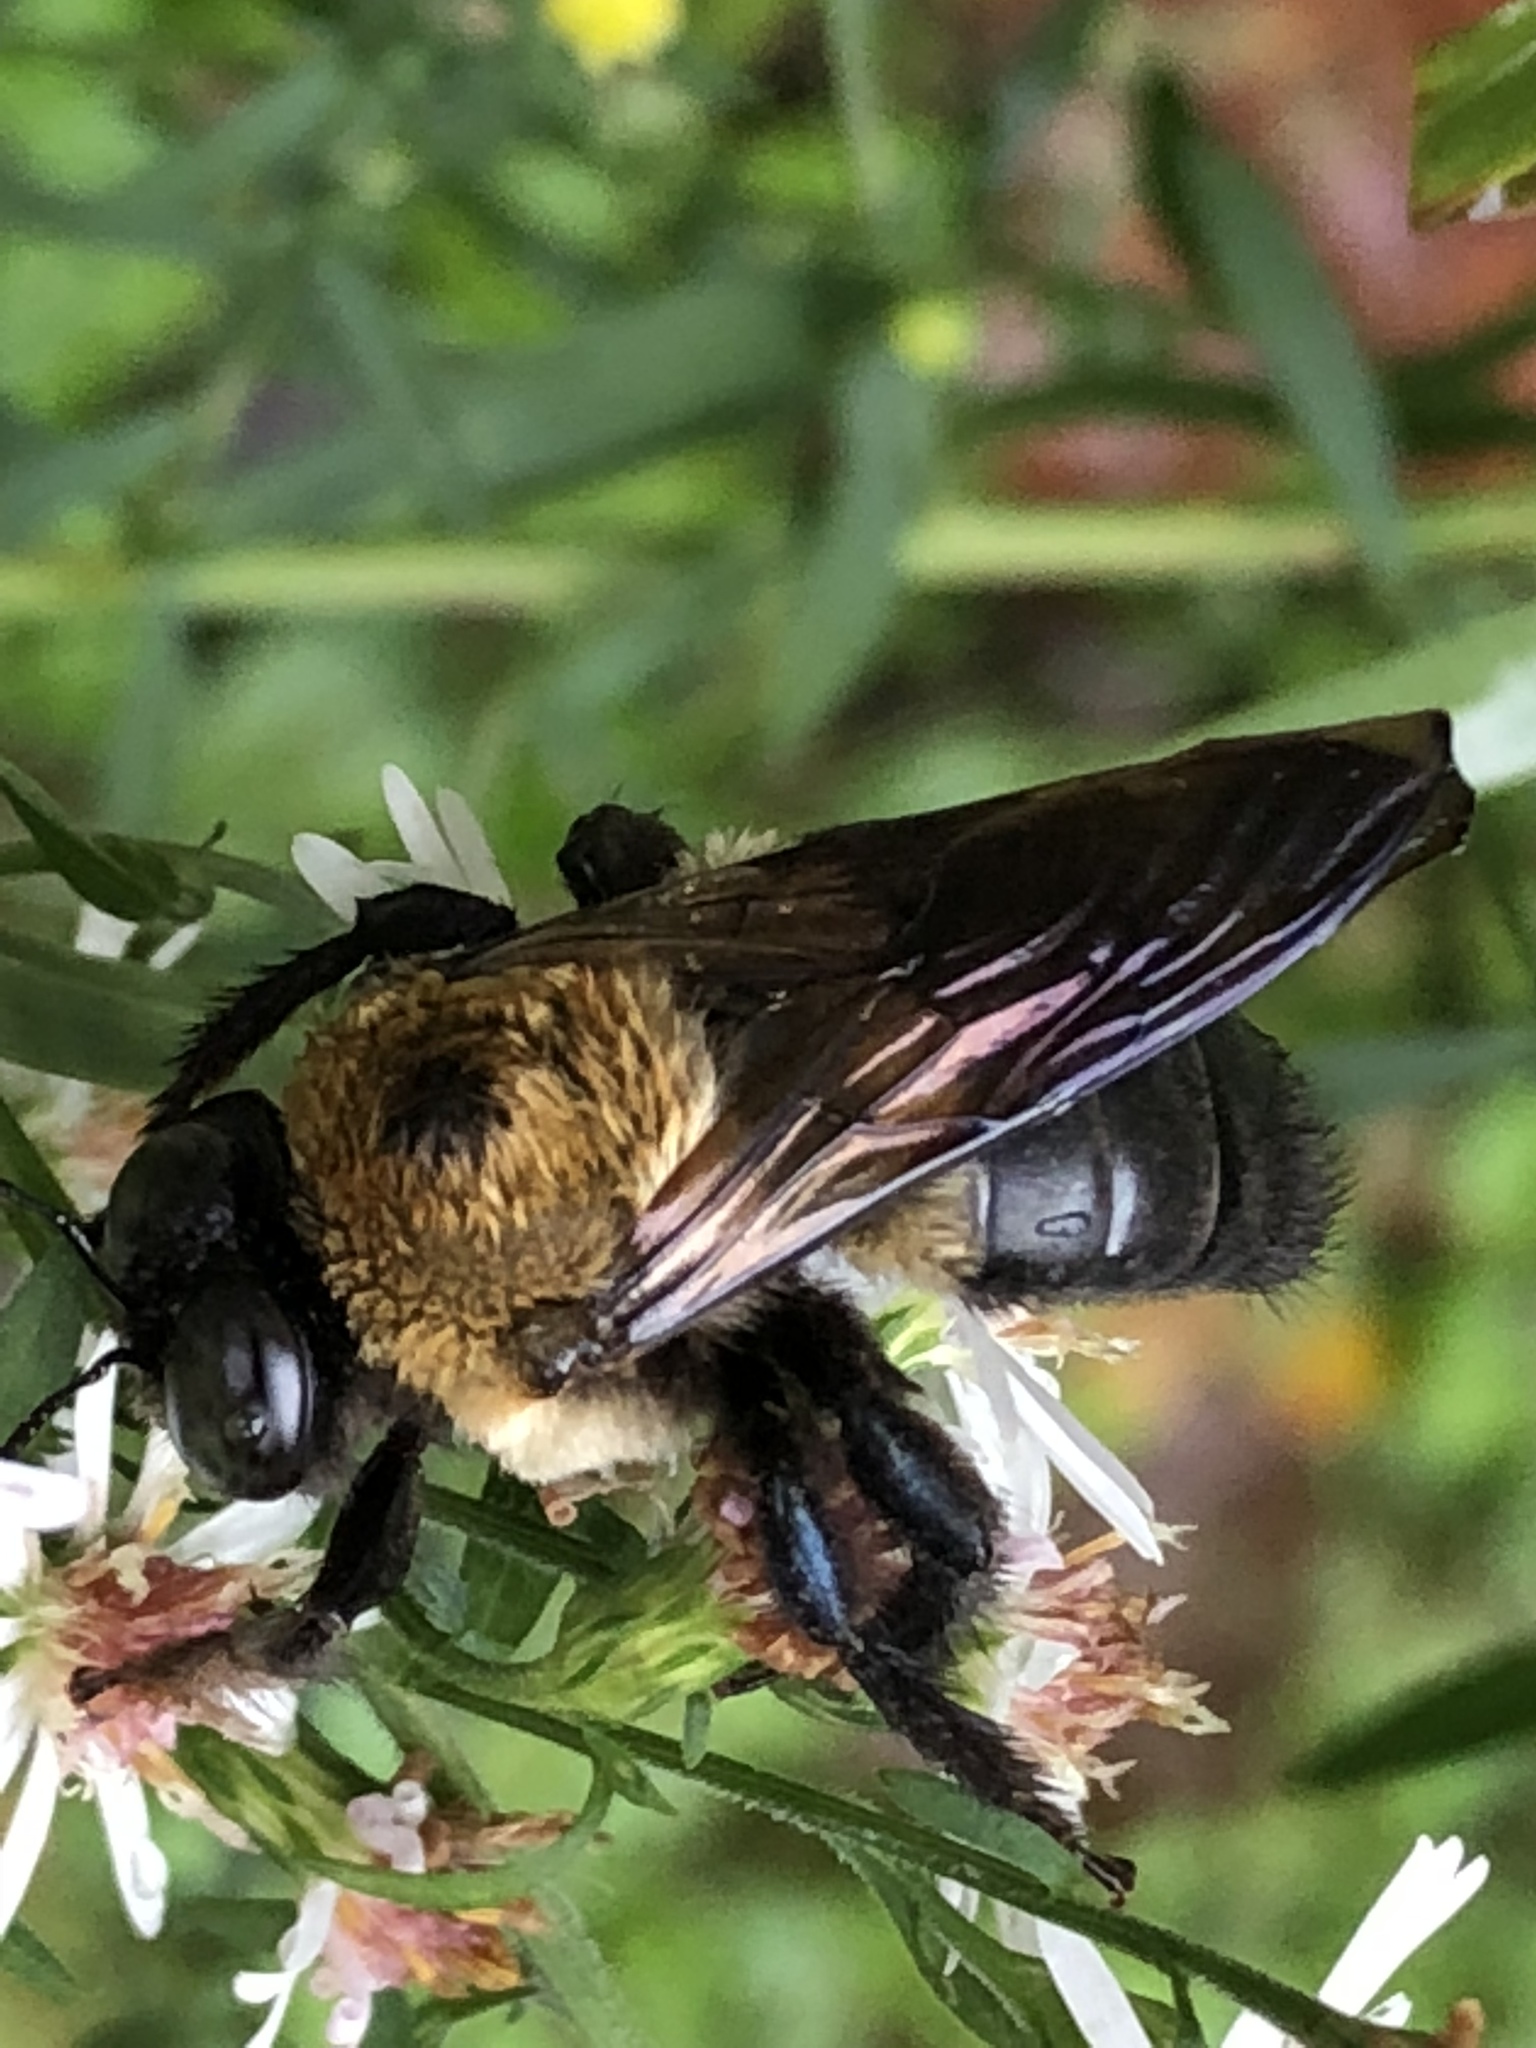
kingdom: Animalia
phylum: Arthropoda
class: Insecta
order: Hymenoptera
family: Apidae
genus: Xylocopa
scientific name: Xylocopa virginica
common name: Carpenter bee
